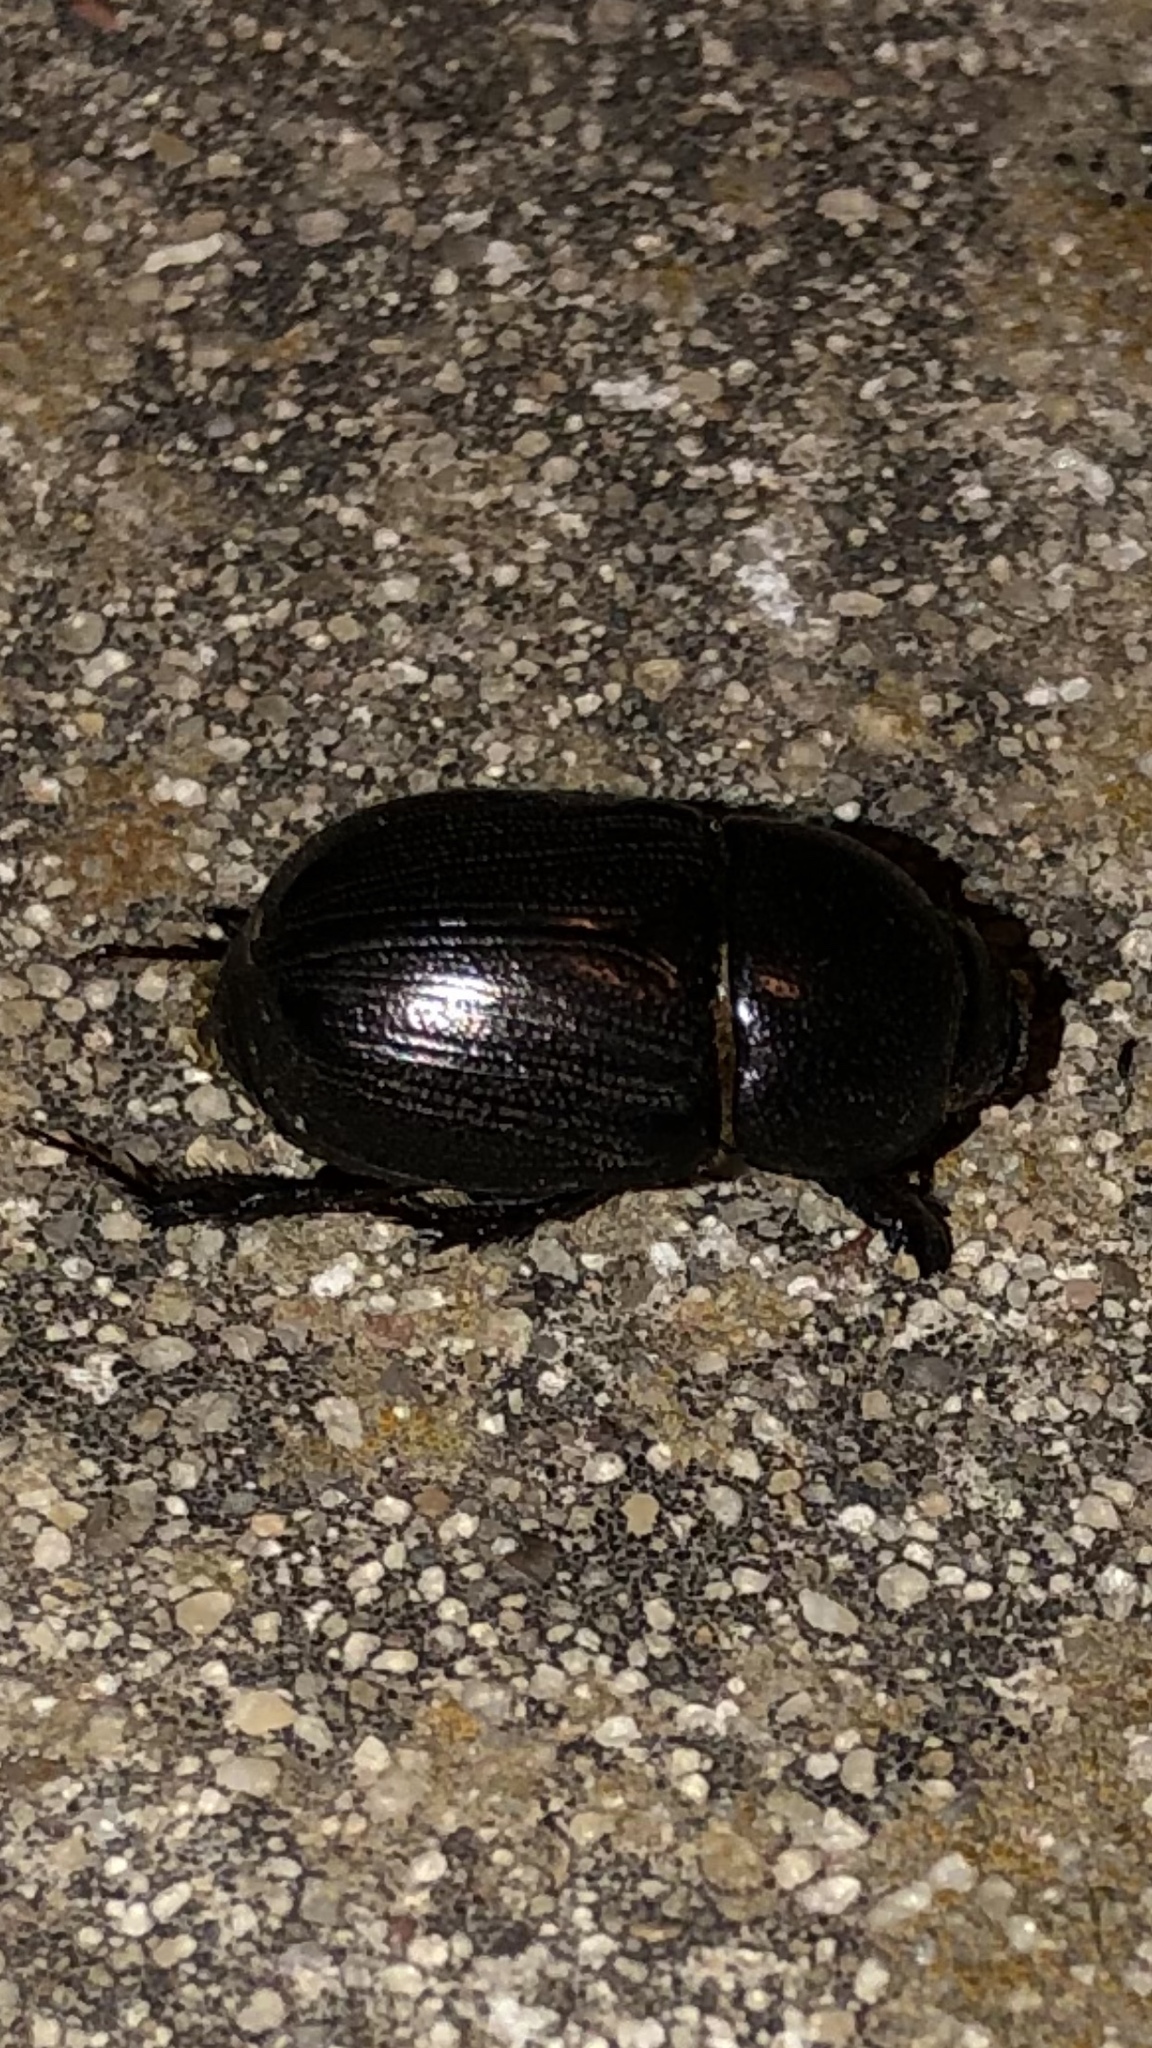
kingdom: Animalia
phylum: Arthropoda
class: Insecta
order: Coleoptera
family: Scarabaeidae
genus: Euetheola
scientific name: Euetheola humilis
